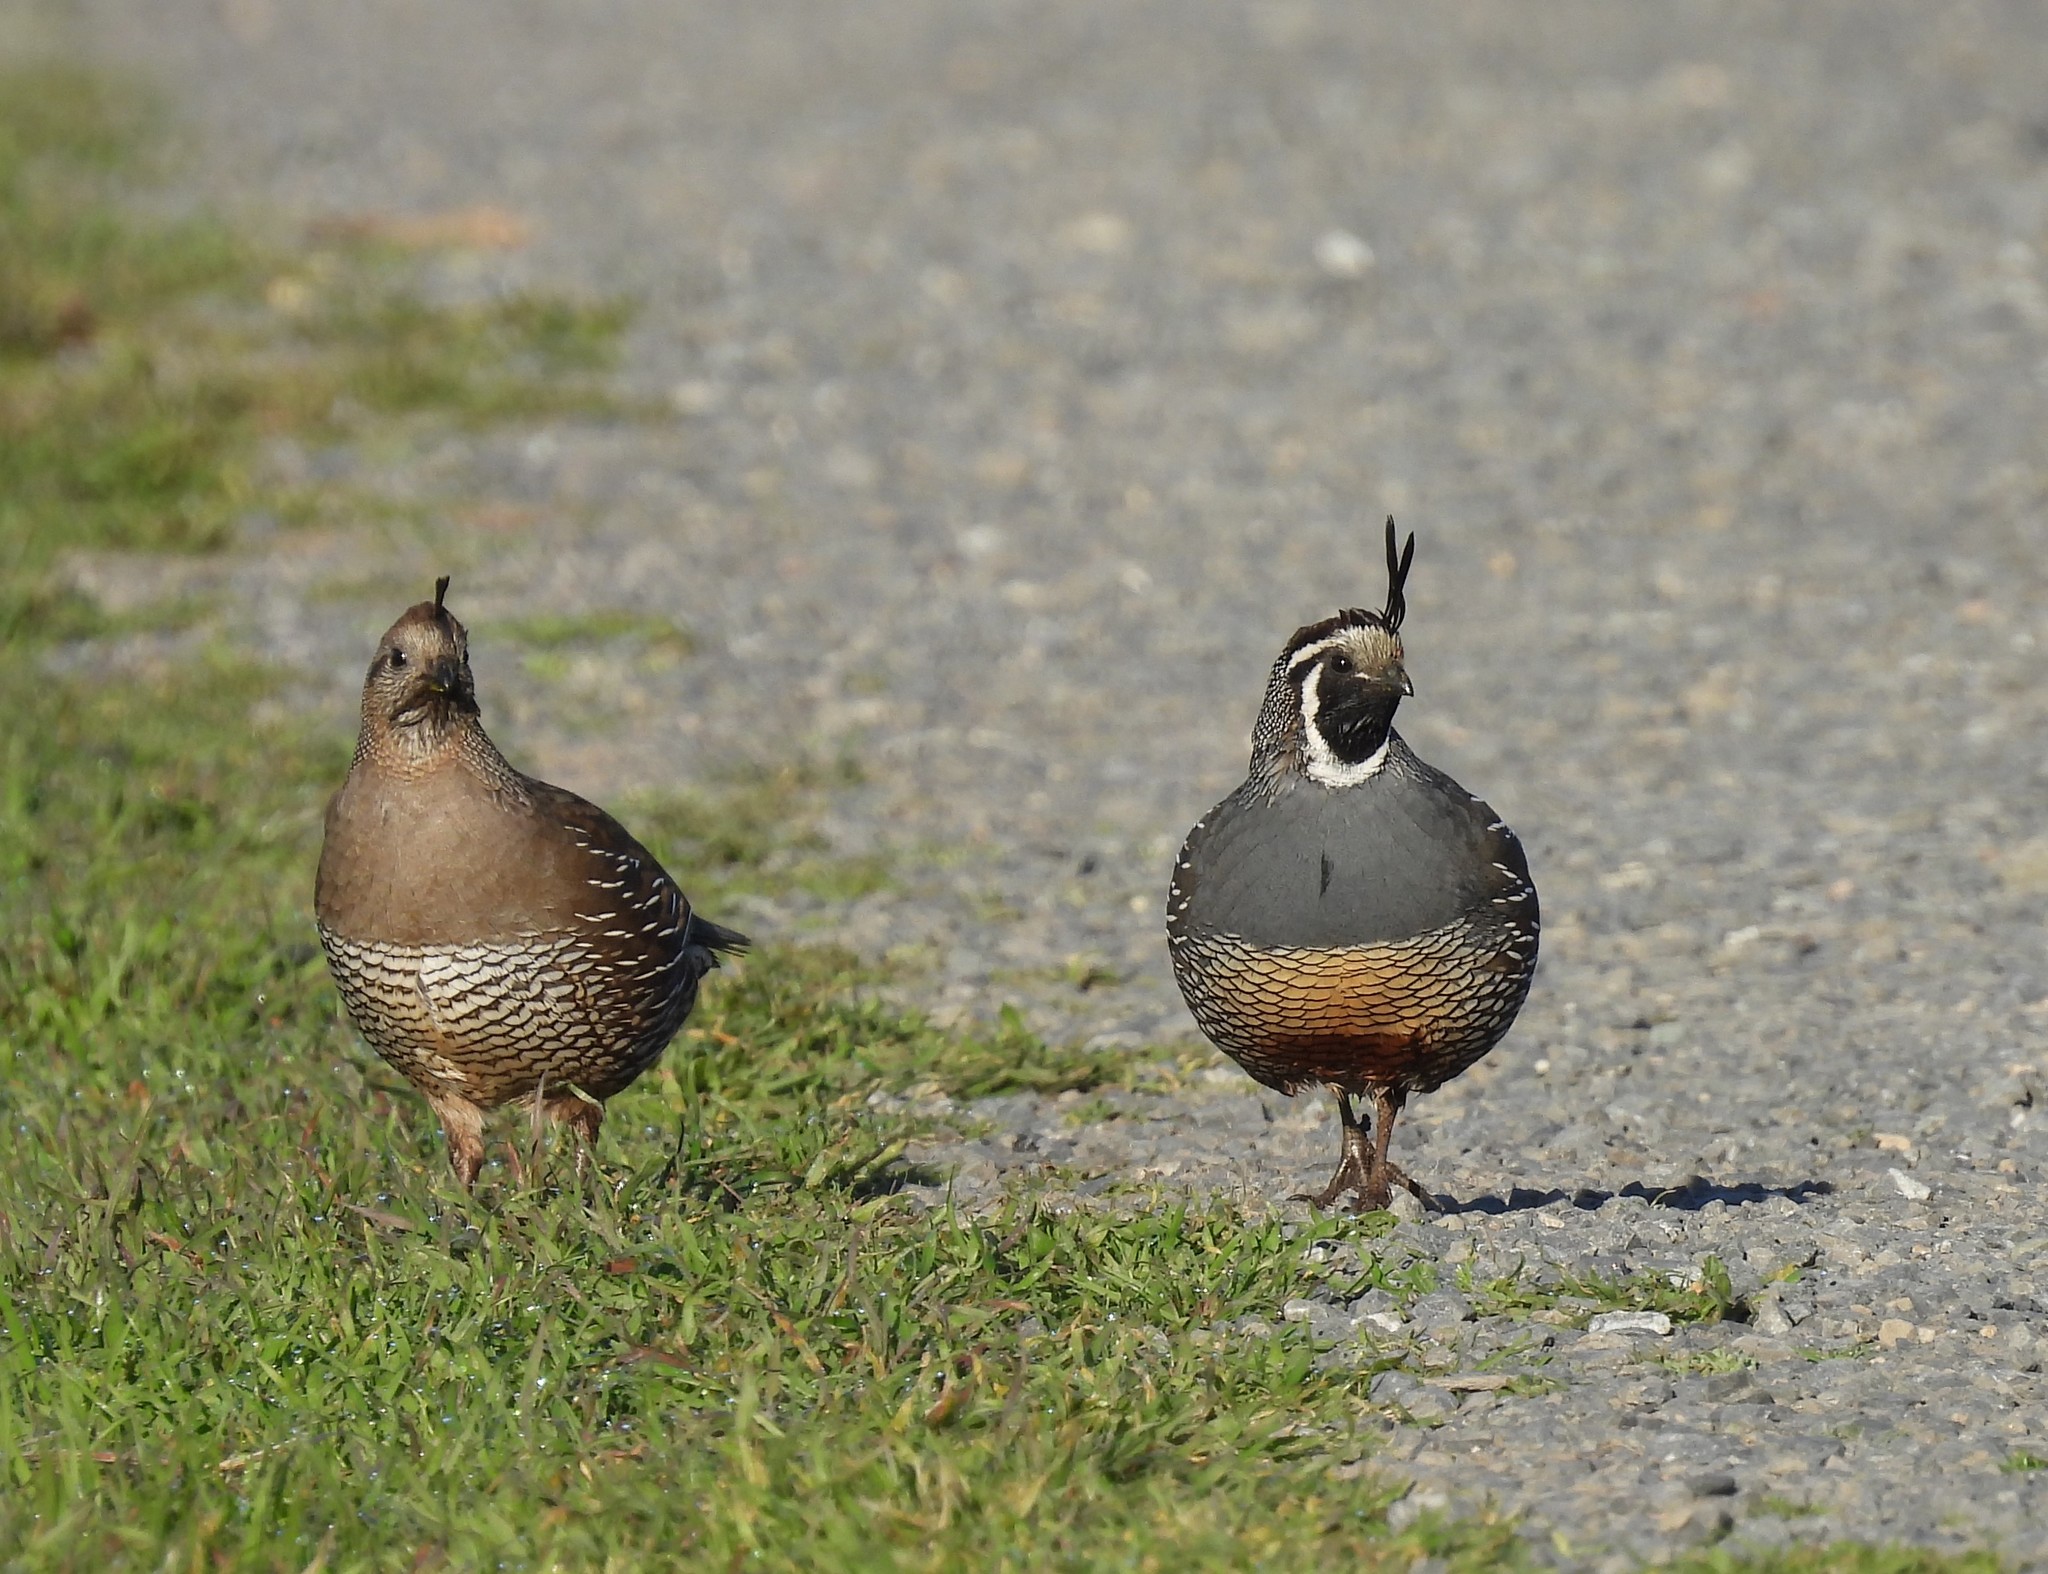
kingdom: Animalia
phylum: Chordata
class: Aves
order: Galliformes
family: Odontophoridae
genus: Callipepla
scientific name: Callipepla californica
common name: California quail
